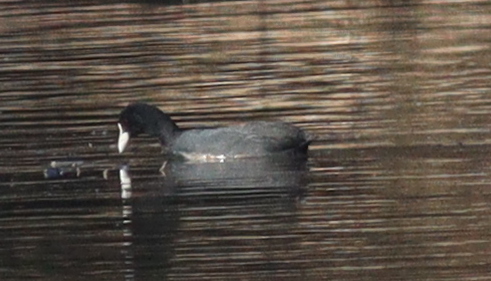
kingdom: Animalia
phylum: Chordata
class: Aves
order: Gruiformes
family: Rallidae
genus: Fulica
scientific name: Fulica atra
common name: Eurasian coot
